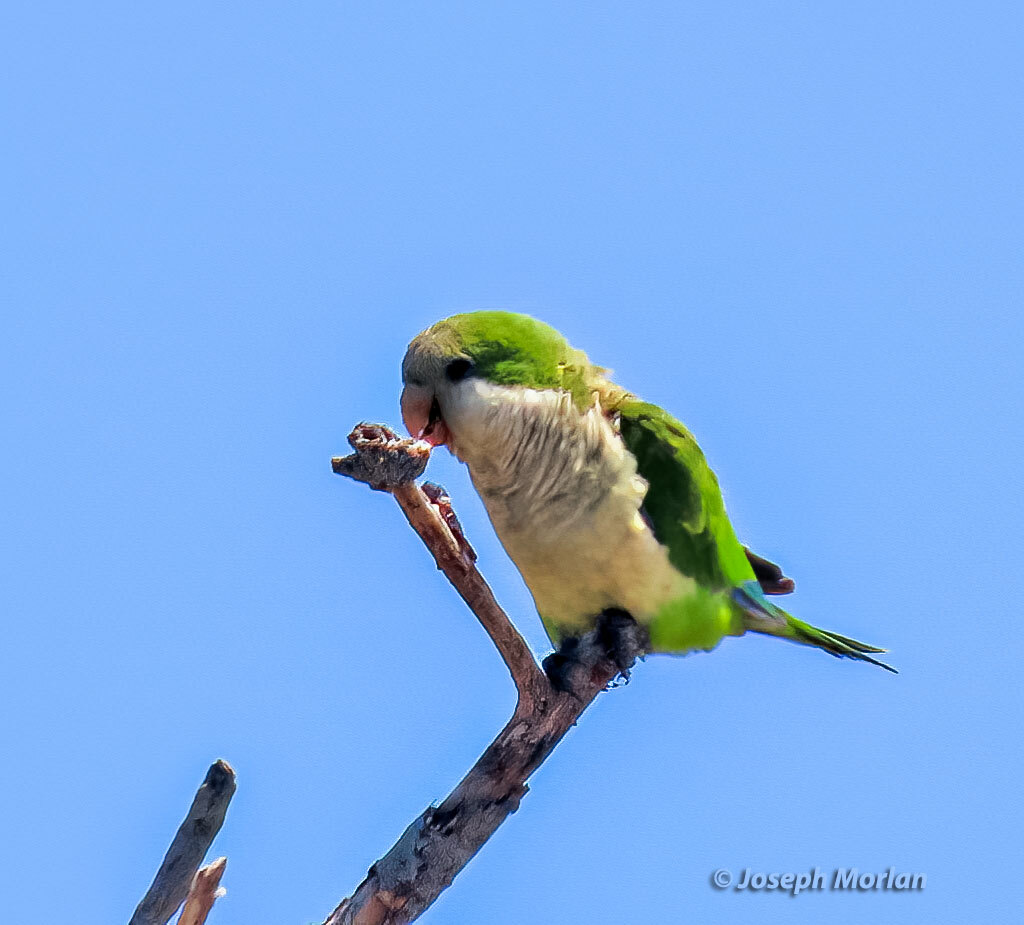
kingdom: Animalia
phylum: Chordata
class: Aves
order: Psittaciformes
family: Psittacidae
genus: Myiopsitta
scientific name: Myiopsitta monachus
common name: Monk parakeet
